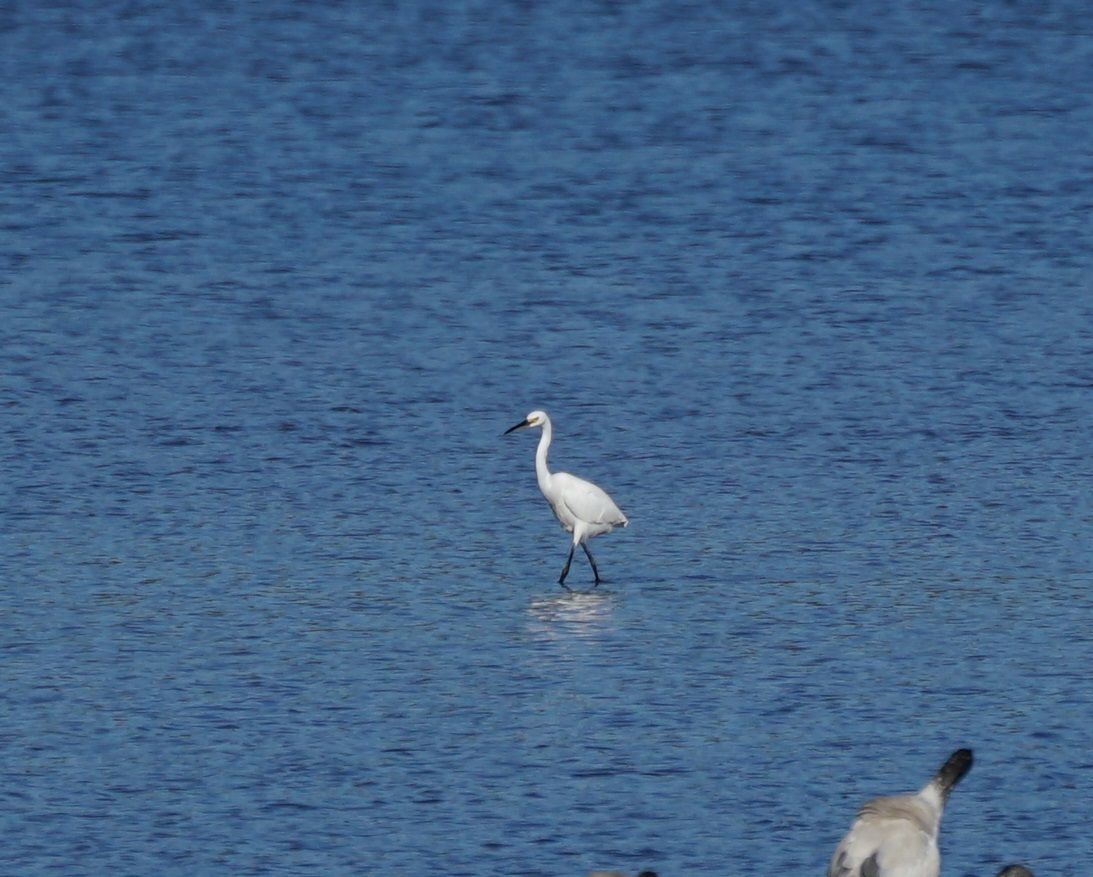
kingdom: Animalia
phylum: Chordata
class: Aves
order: Pelecaniformes
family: Ardeidae
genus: Egretta
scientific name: Egretta garzetta
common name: Little egret
